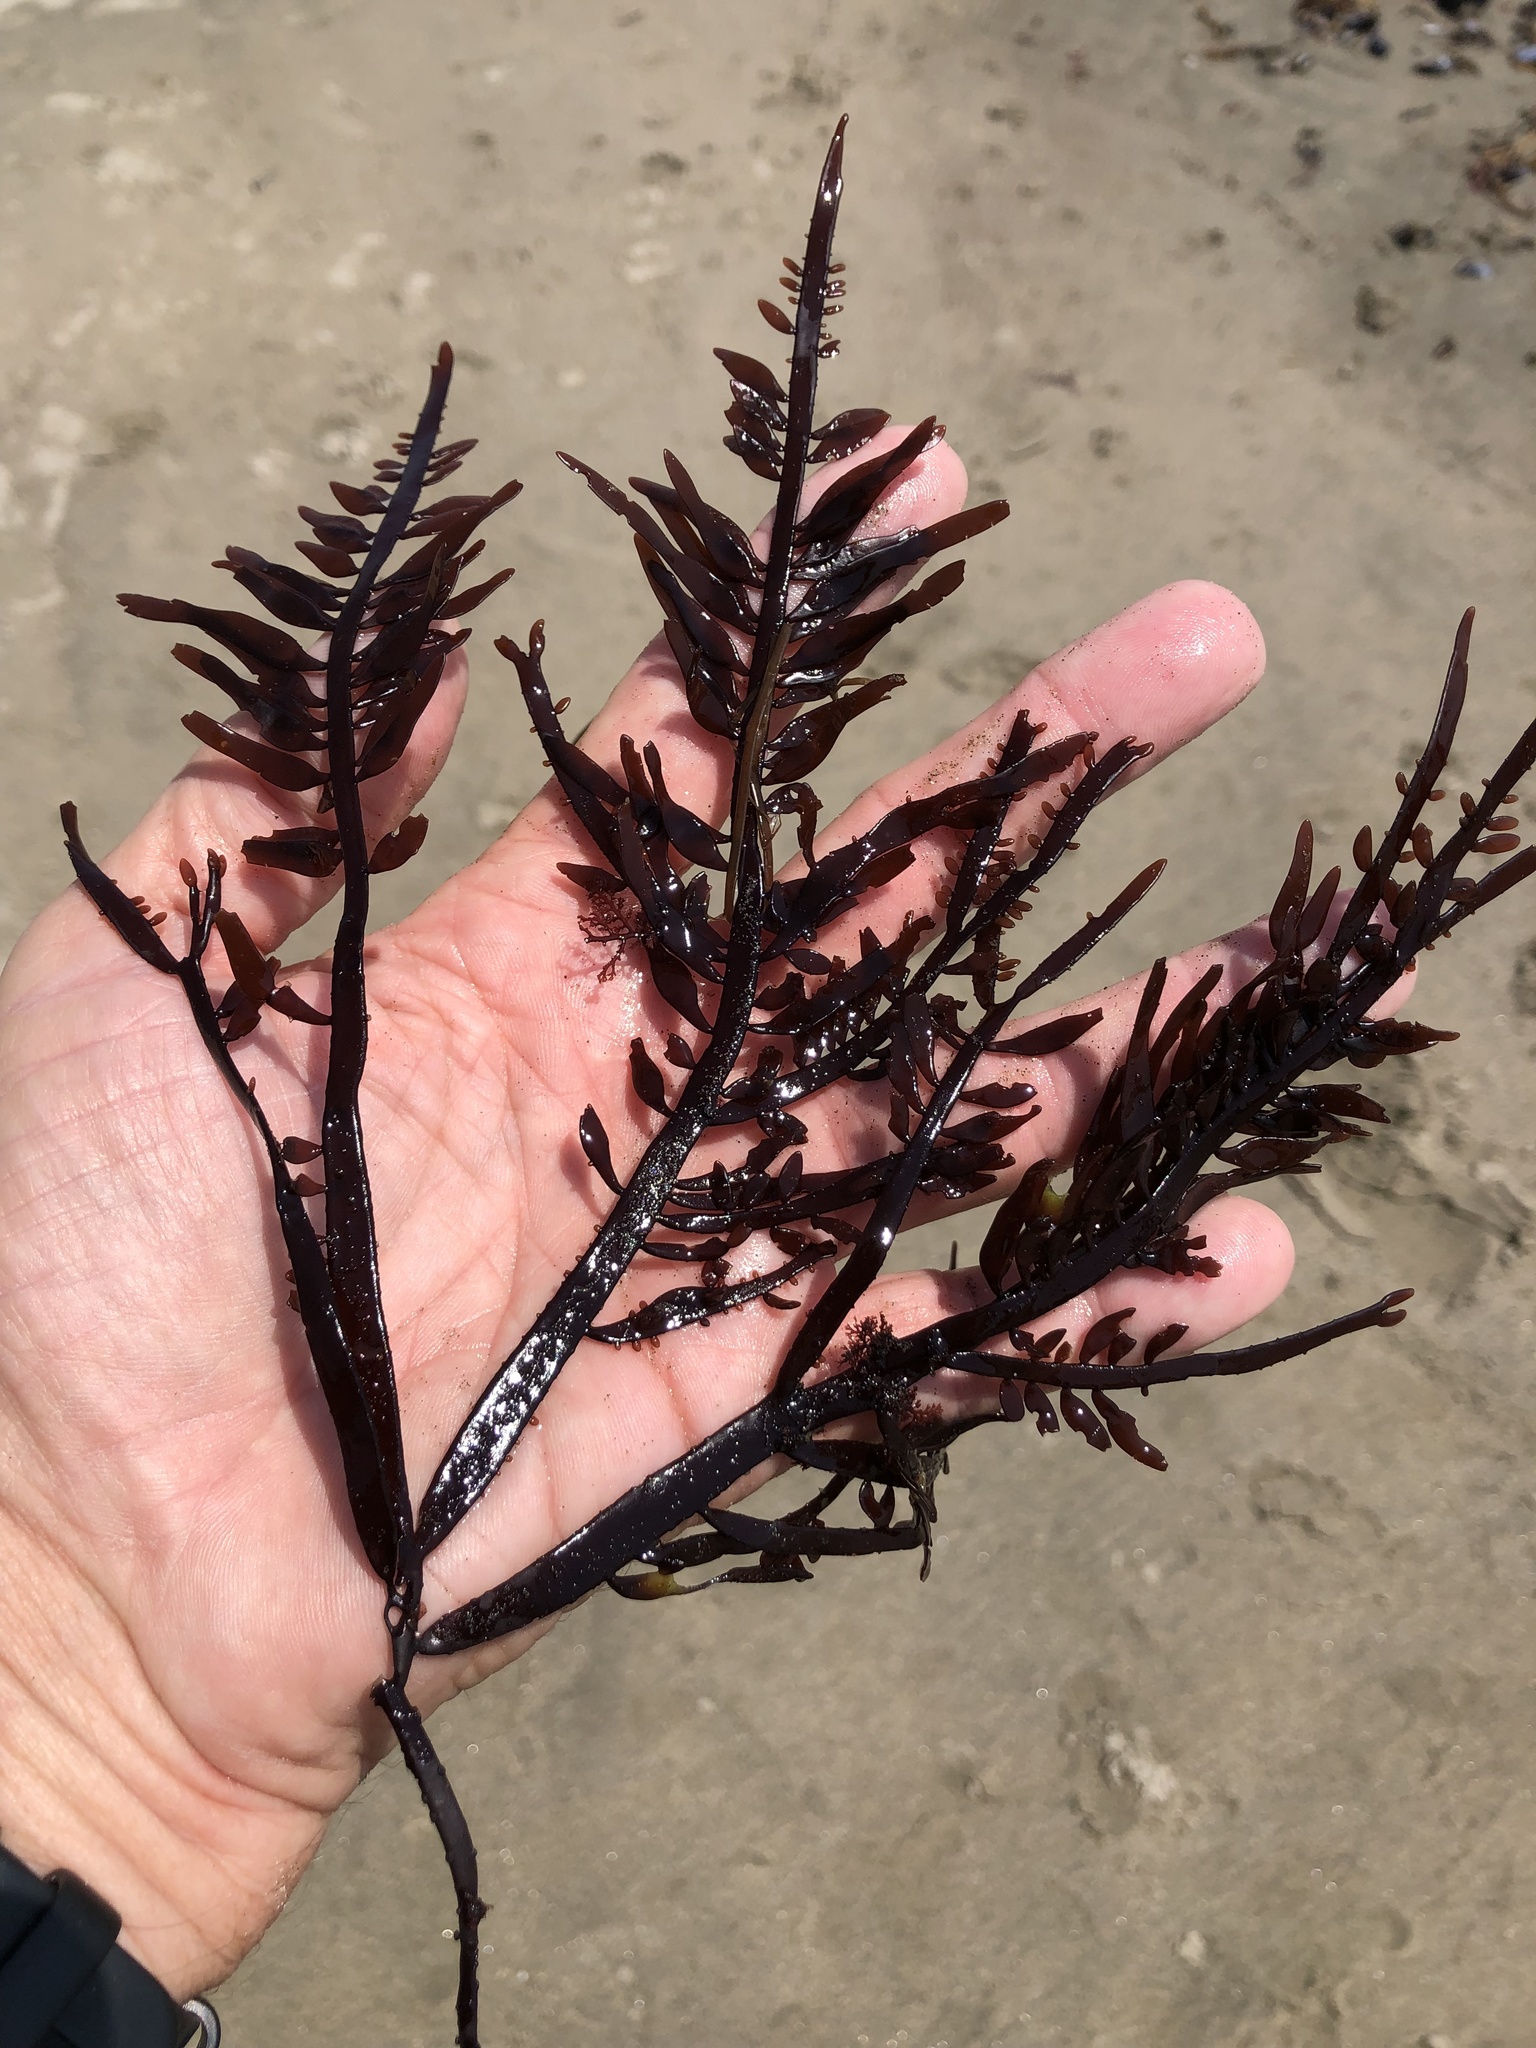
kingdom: Plantae
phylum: Rhodophyta
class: Florideophyceae
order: Halymeniales
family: Halymeniaceae
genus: Grateloupia
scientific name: Grateloupia Prionitis lanceolata
